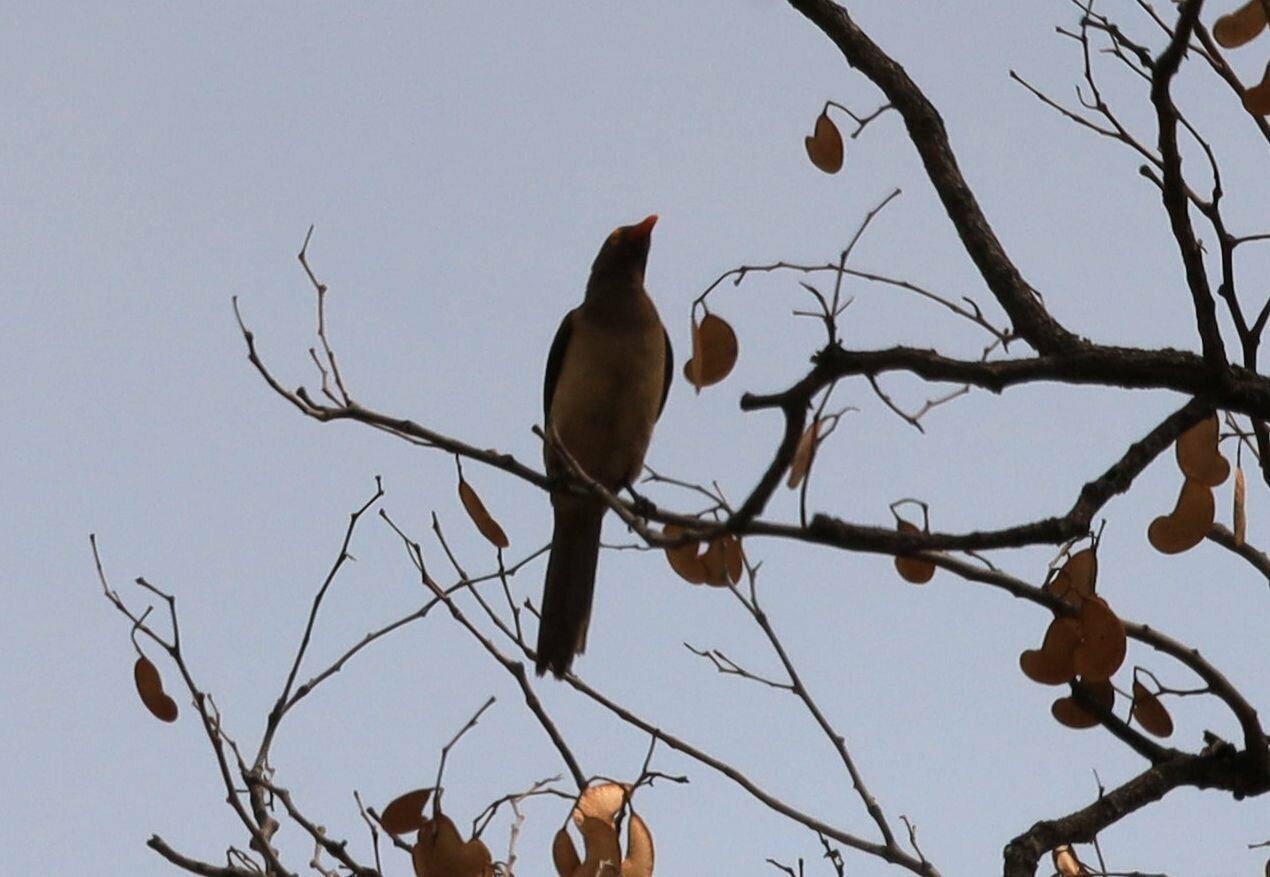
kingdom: Animalia
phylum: Chordata
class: Aves
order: Passeriformes
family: Buphagidae
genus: Buphagus
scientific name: Buphagus erythrorhynchus
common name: Red-billed oxpecker
